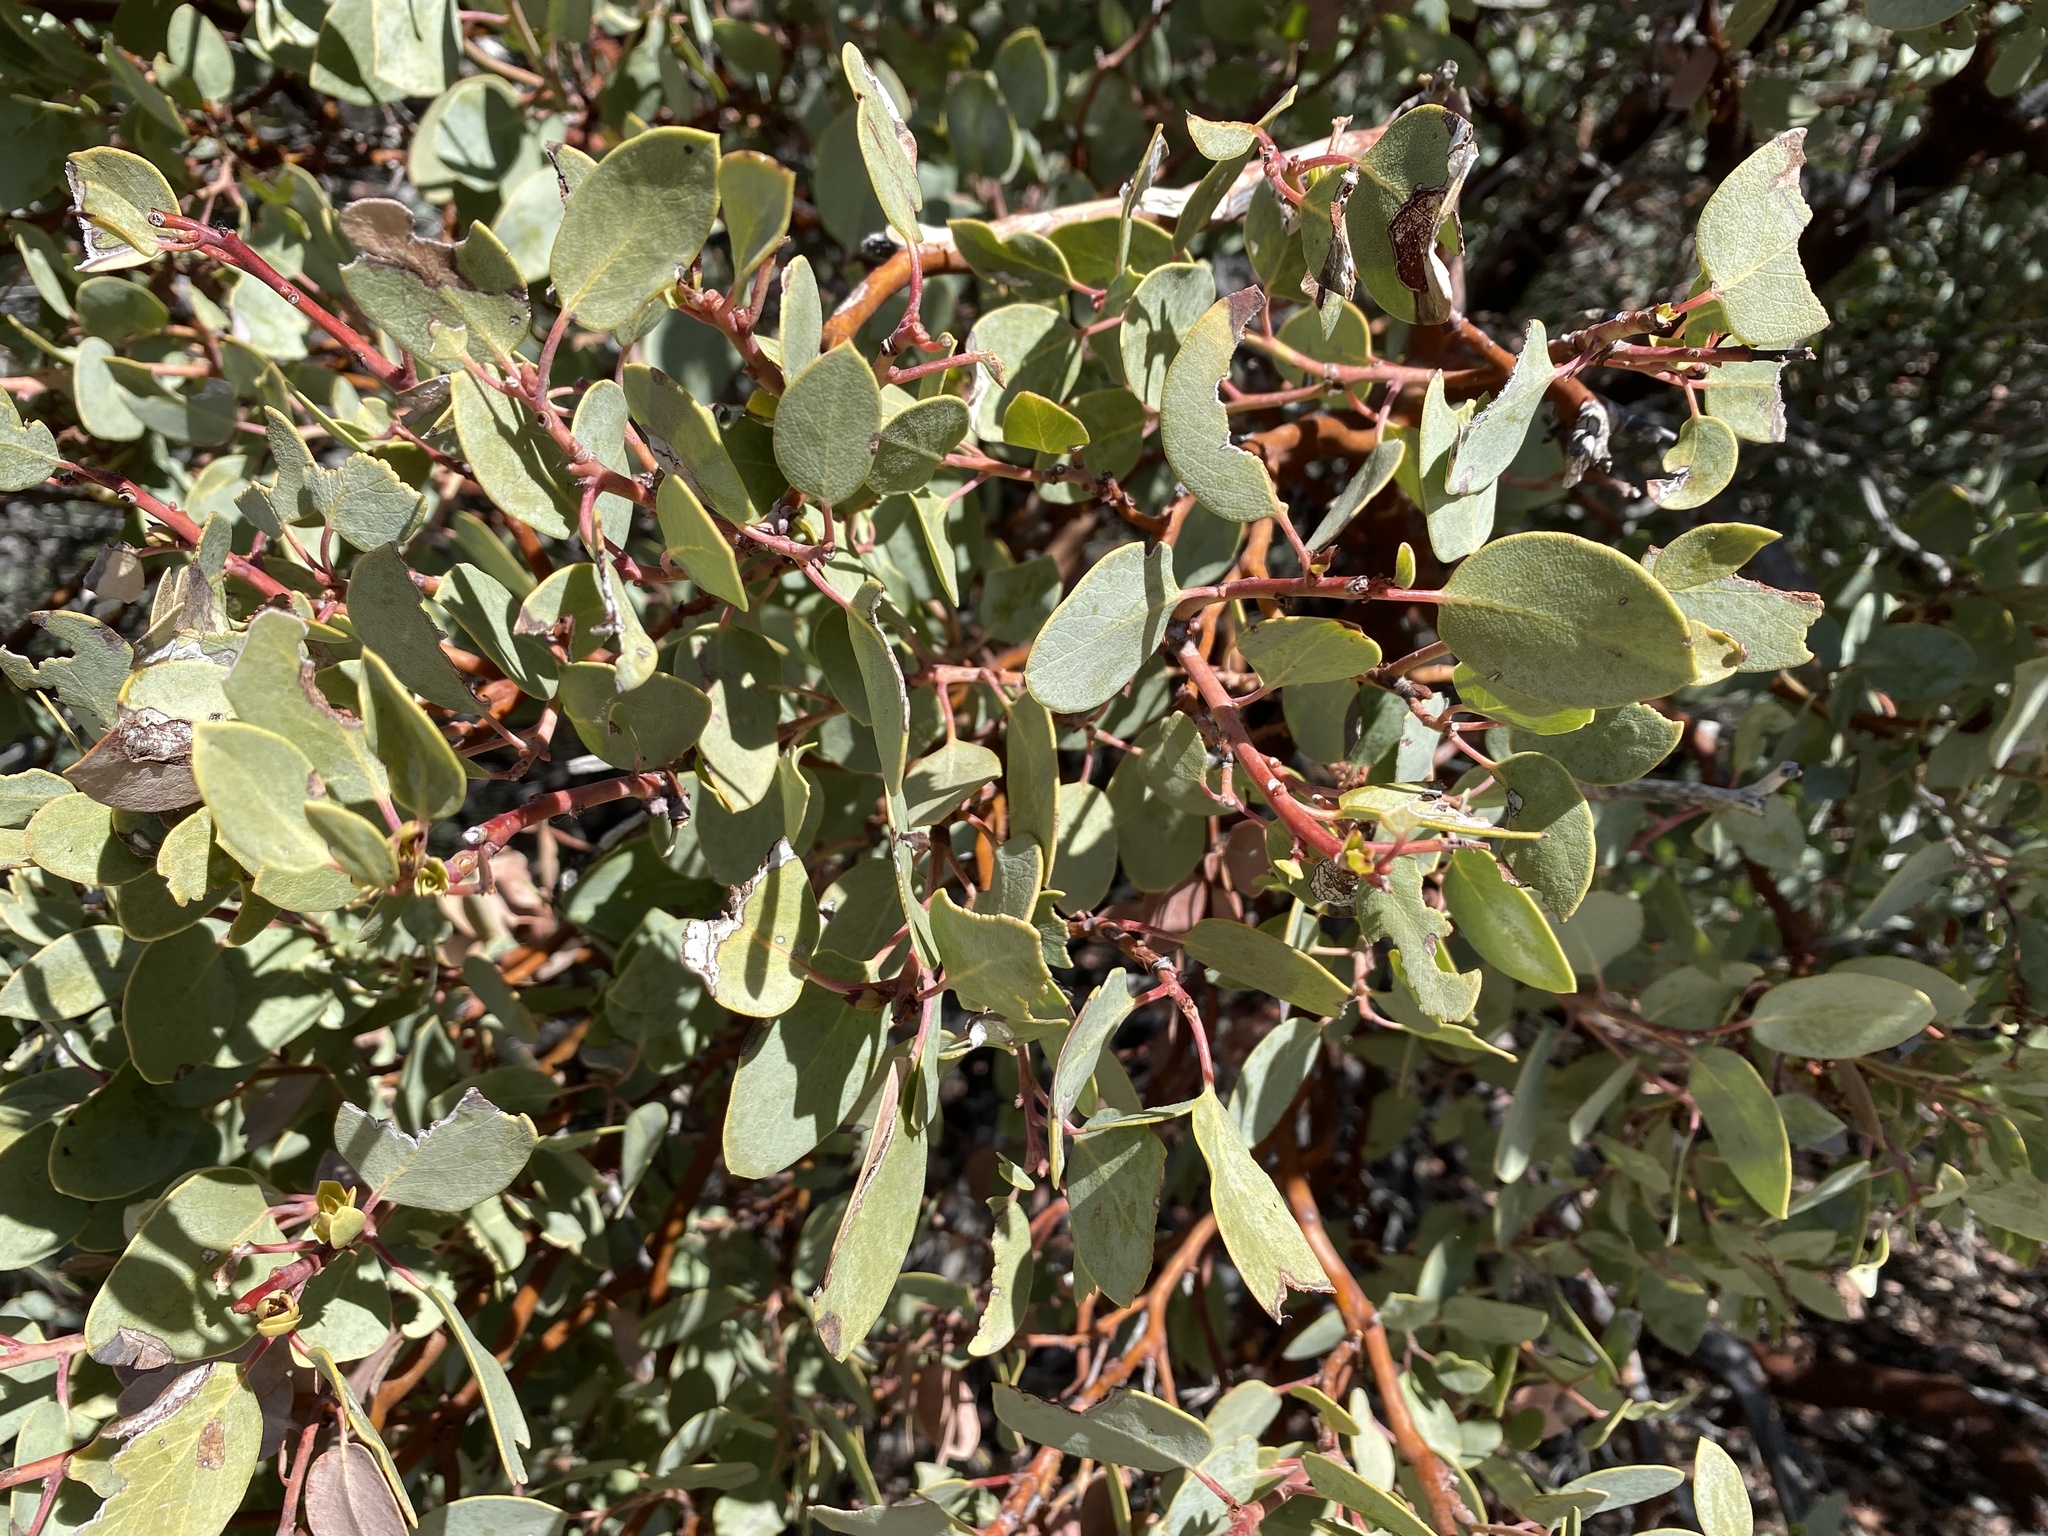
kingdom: Plantae
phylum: Tracheophyta
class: Magnoliopsida
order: Ericales
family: Ericaceae
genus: Arctostaphylos
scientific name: Arctostaphylos glauca
